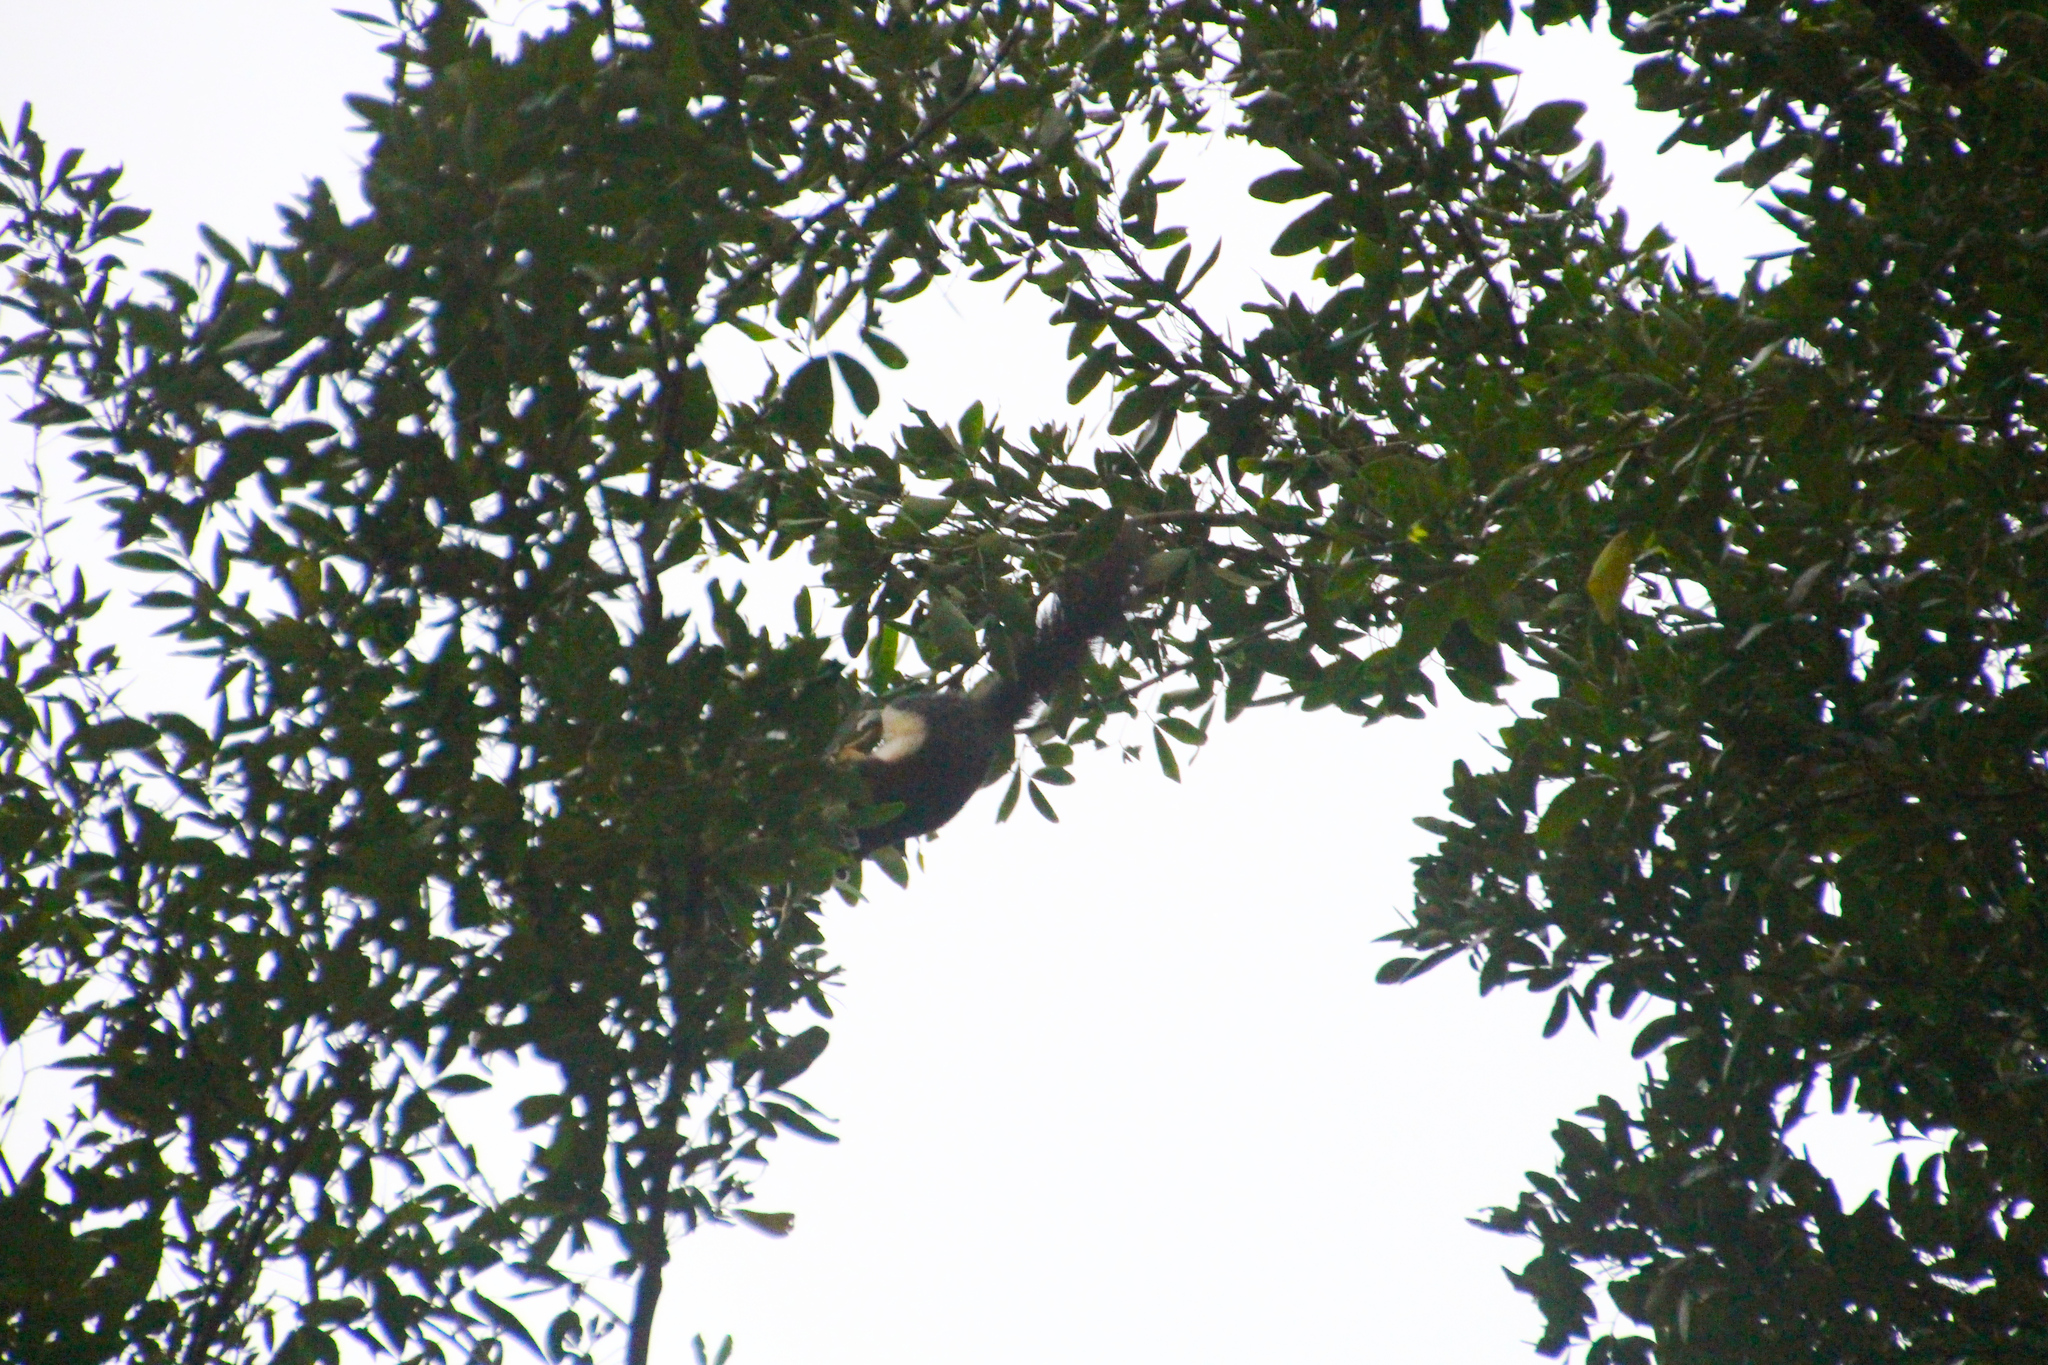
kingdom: Animalia
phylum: Chordata
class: Mammalia
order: Rodentia
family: Sciuridae
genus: Callosciurus
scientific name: Callosciurus finlaysonii
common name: Finlayson's squirrel
